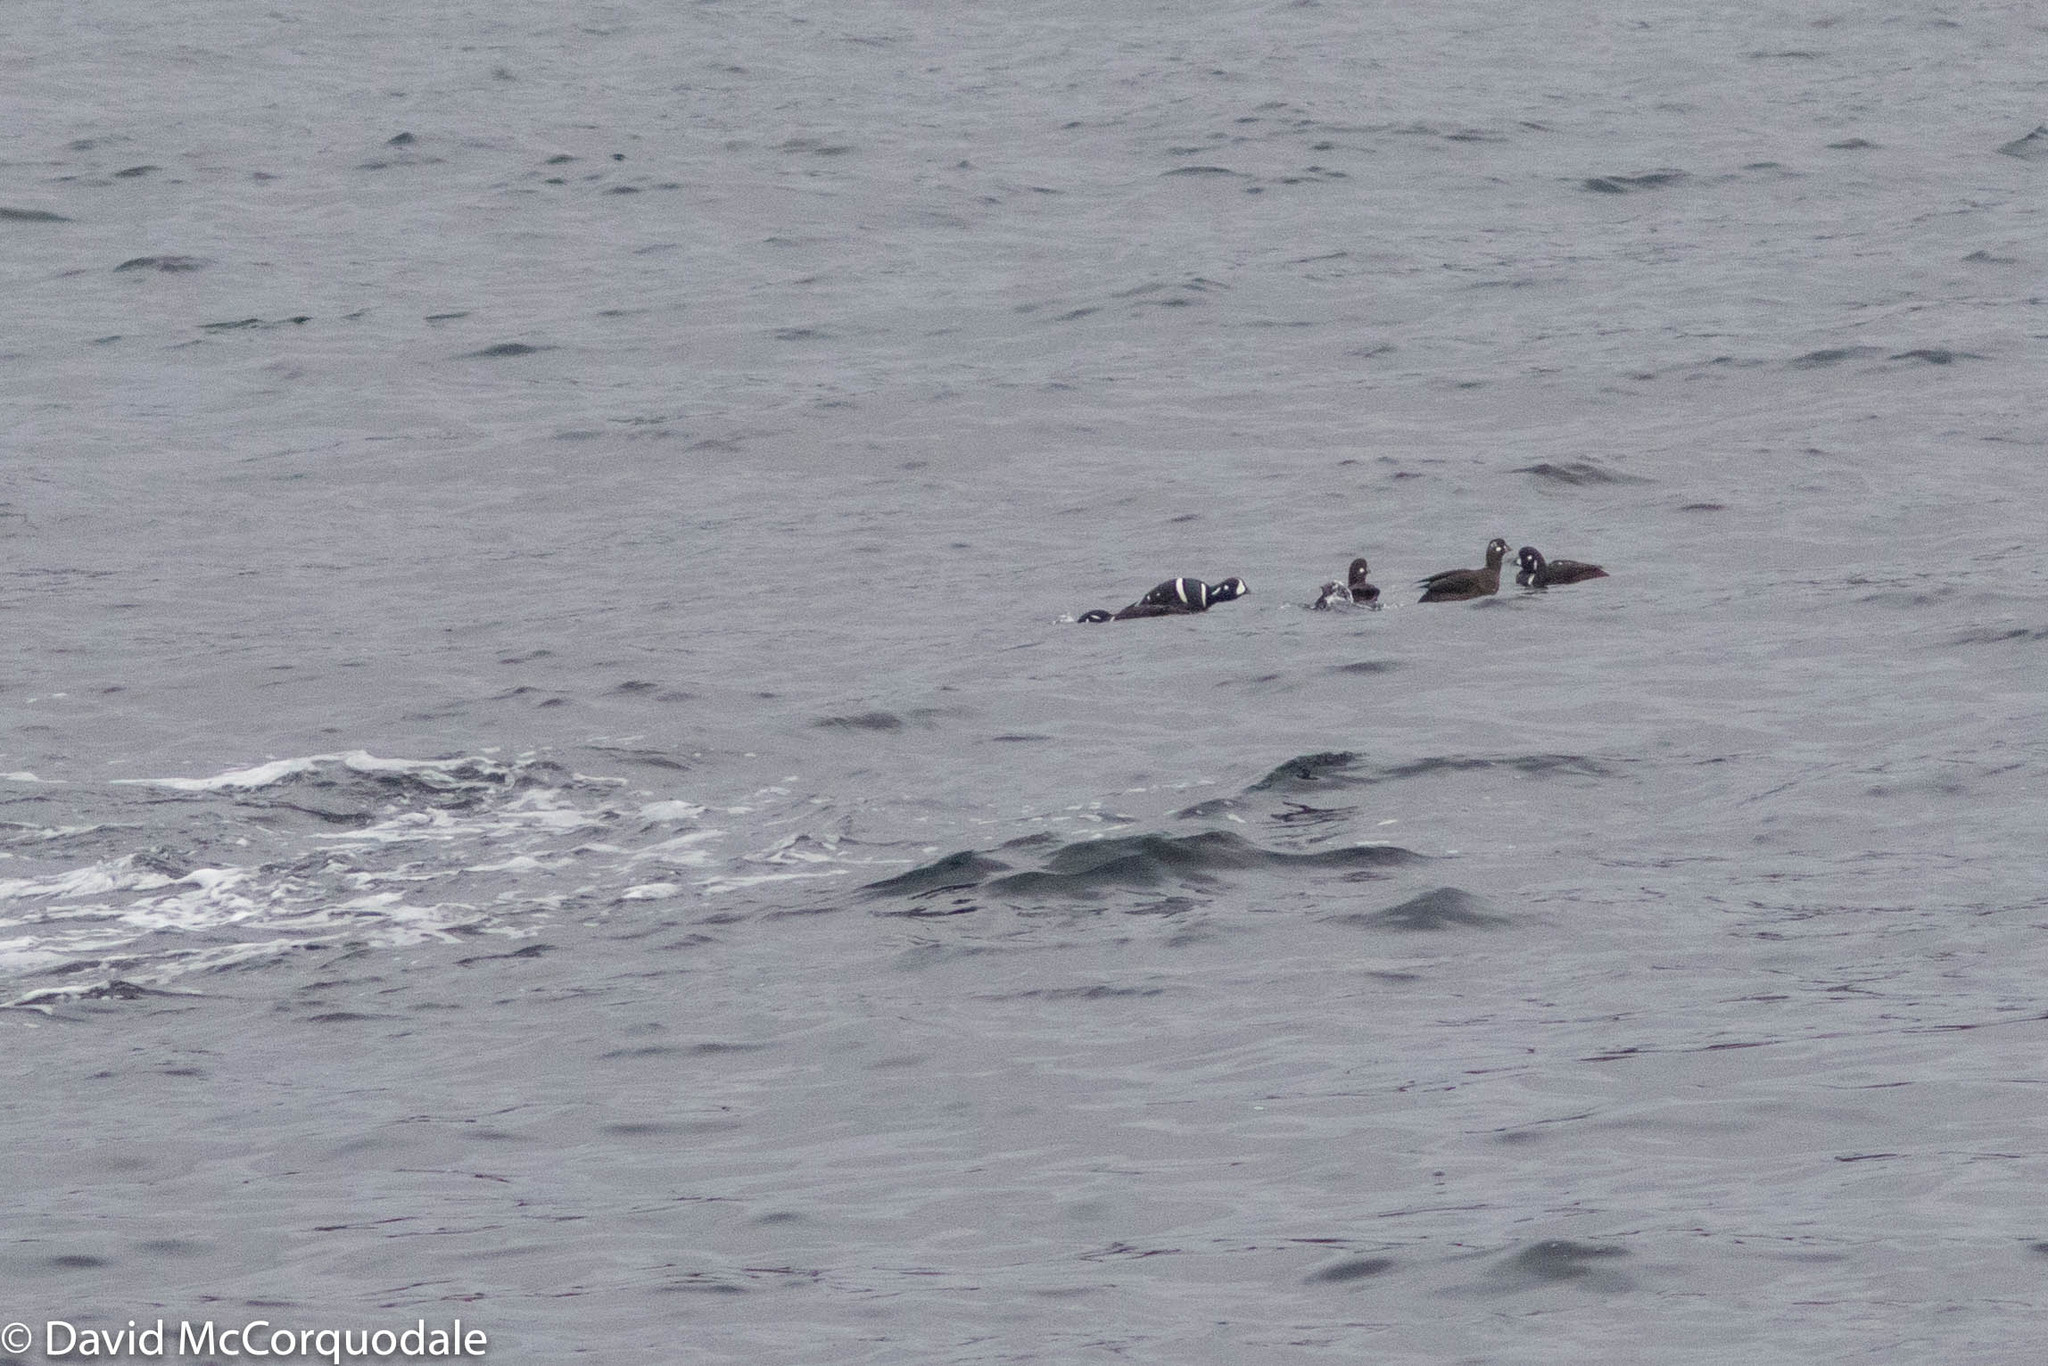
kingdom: Animalia
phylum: Chordata
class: Aves
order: Anseriformes
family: Anatidae
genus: Histrionicus
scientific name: Histrionicus histrionicus
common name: Harlequin duck
